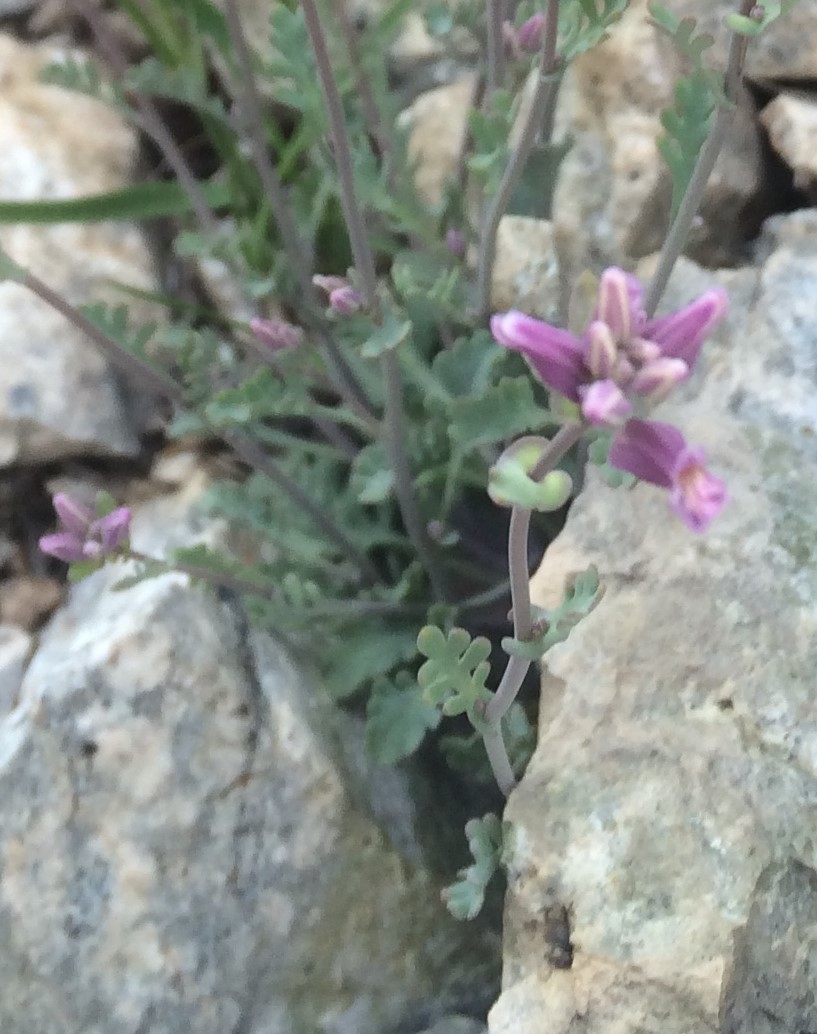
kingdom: Plantae
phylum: Tracheophyta
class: Magnoliopsida
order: Brassicales
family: Brassicaceae
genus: Streptanthus
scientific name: Streptanthus gracilis
